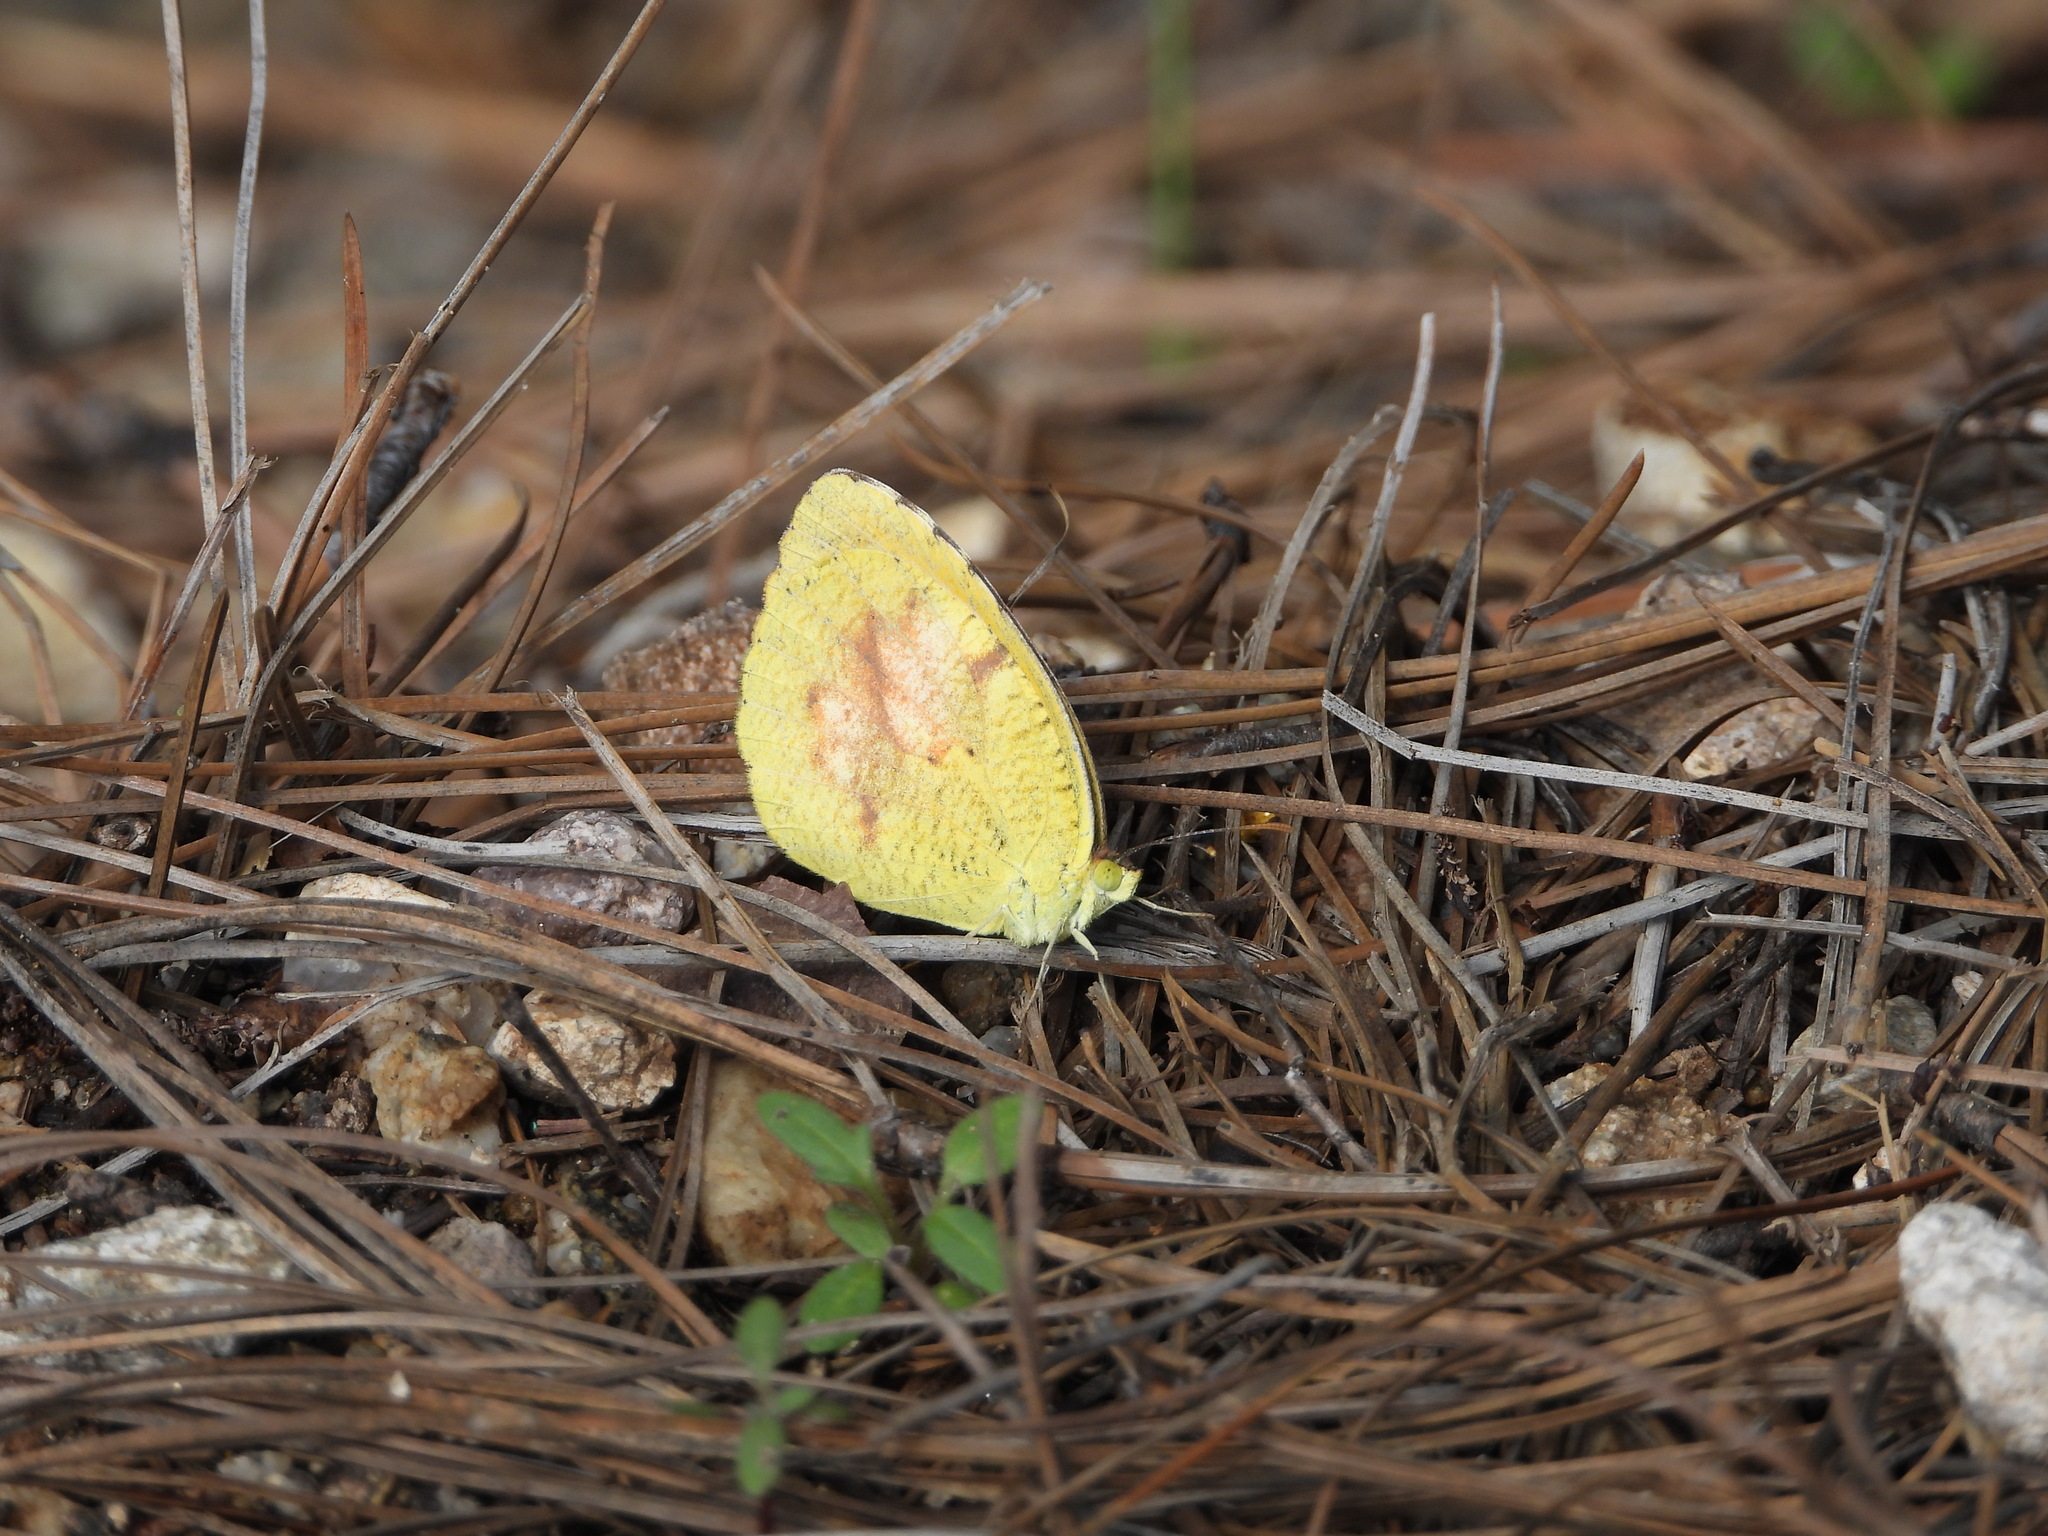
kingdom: Animalia
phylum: Arthropoda
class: Insecta
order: Lepidoptera
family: Pieridae
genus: Abaeis
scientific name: Abaeis nicippe
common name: Sleepy orange
